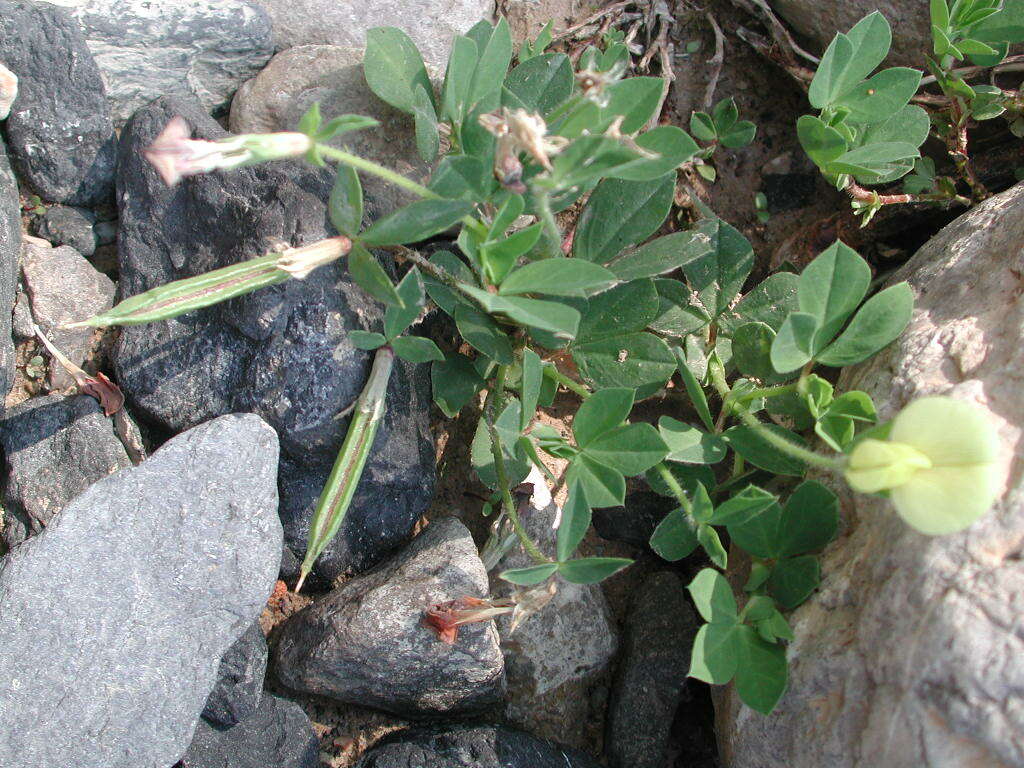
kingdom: Plantae
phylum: Tracheophyta
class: Magnoliopsida
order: Fabales
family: Fabaceae
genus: Lotus
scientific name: Lotus maritimus
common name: Dragon's-teeth
